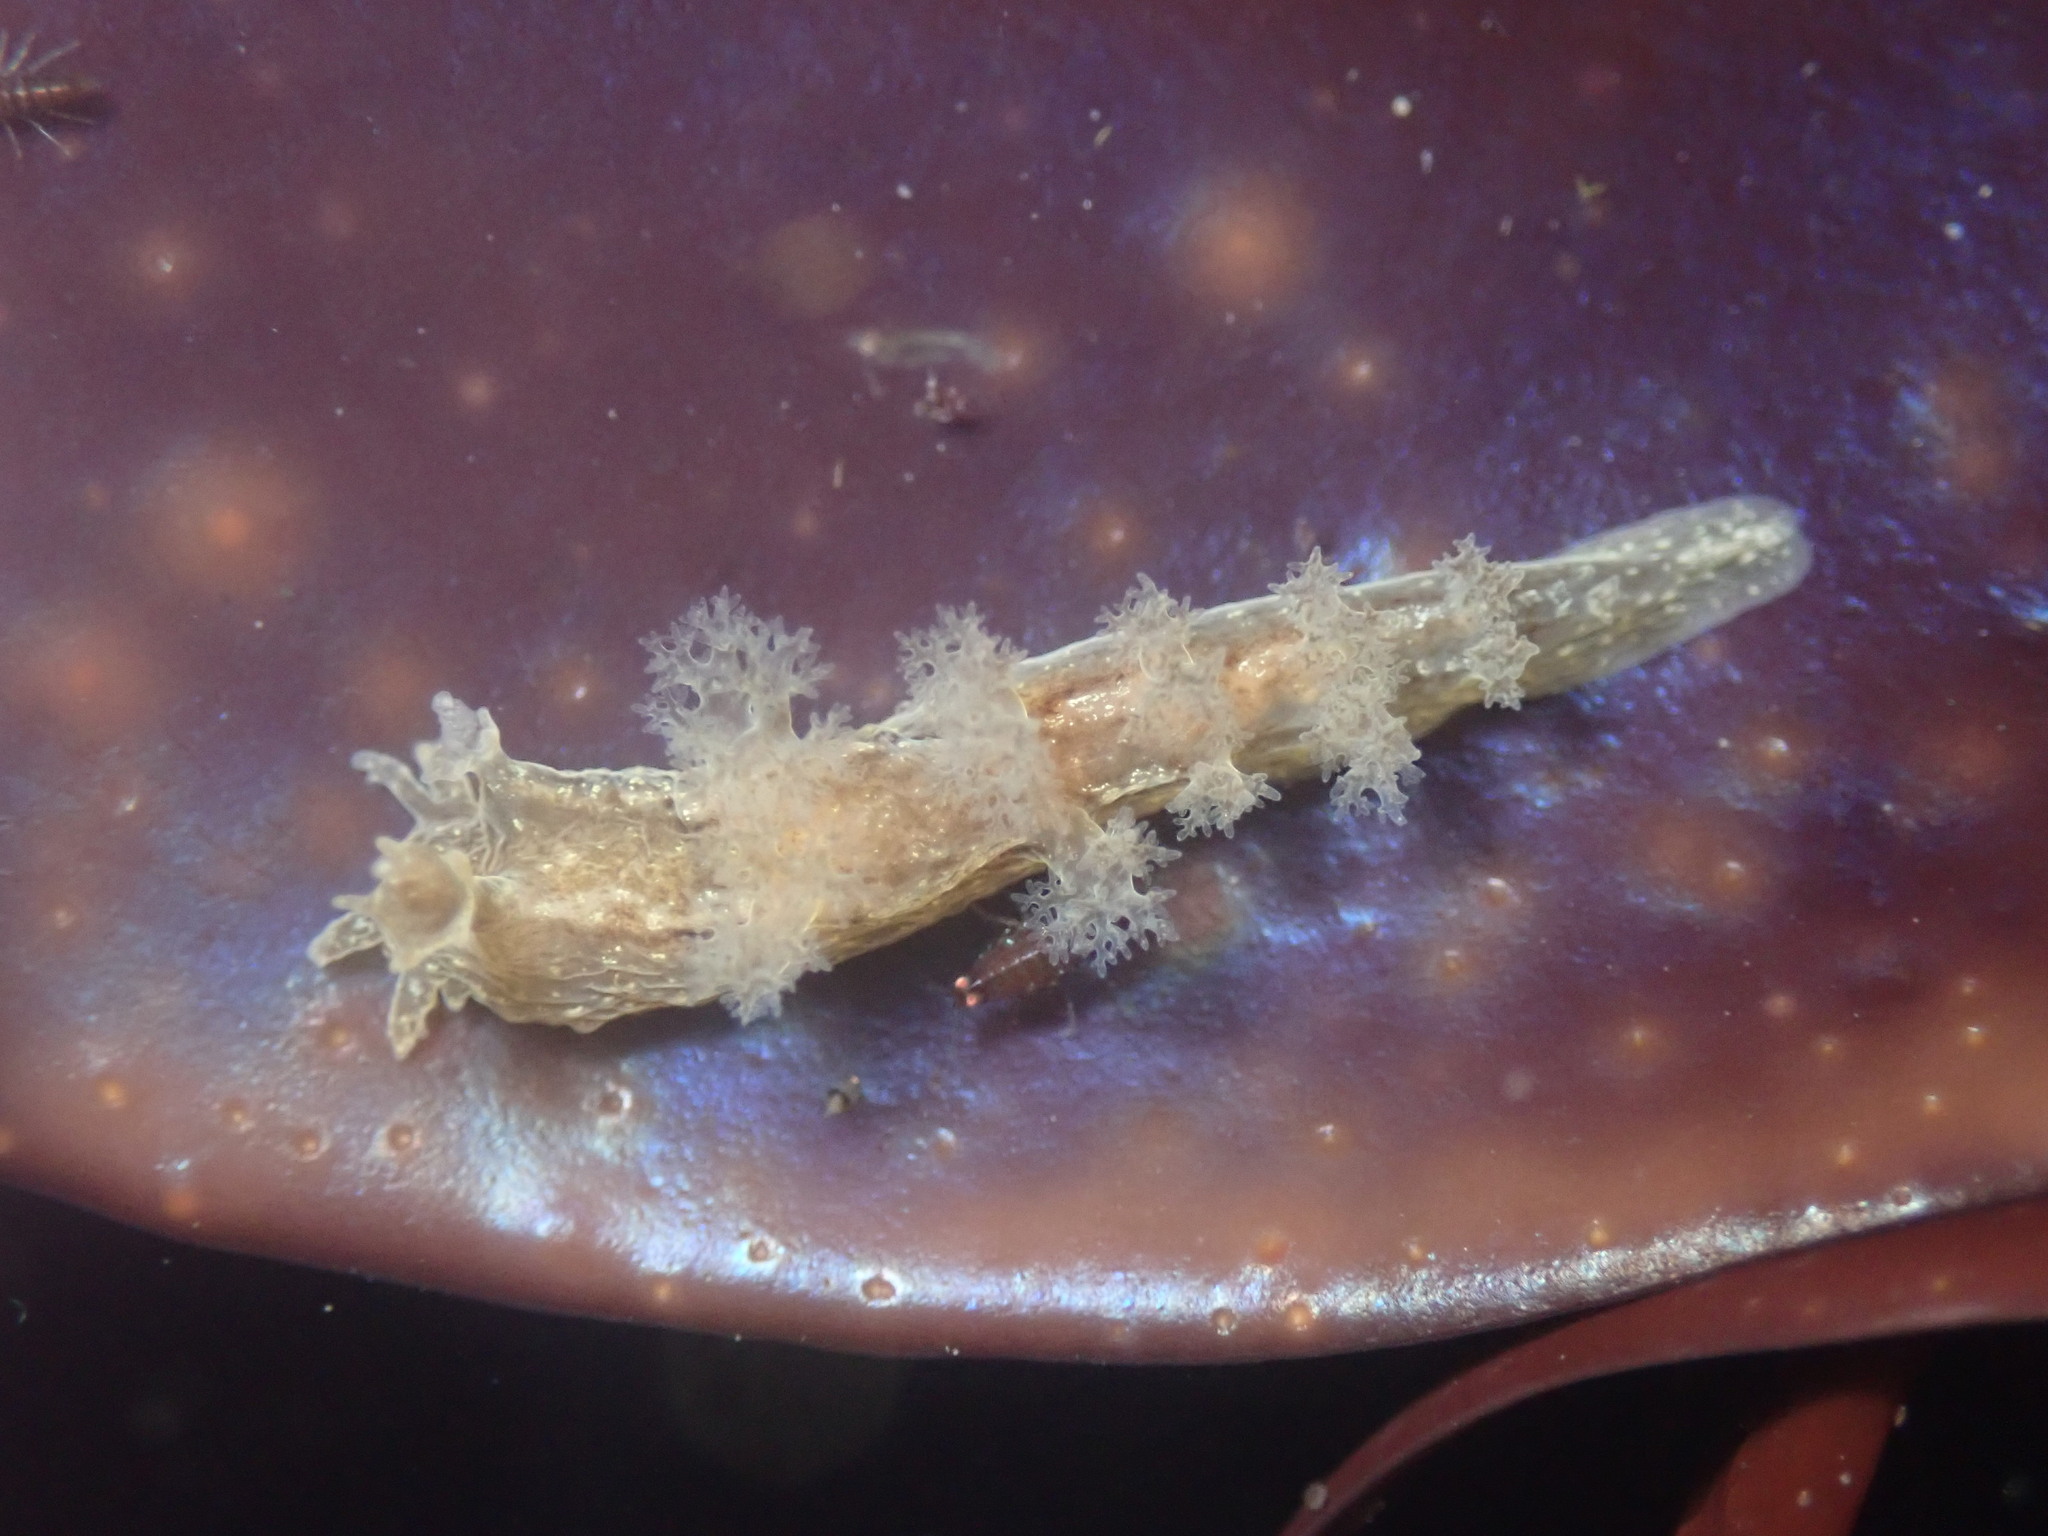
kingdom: Animalia
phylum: Mollusca
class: Gastropoda
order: Nudibranchia
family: Dendronotidae
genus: Dendronotus
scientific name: Dendronotus subramosus
